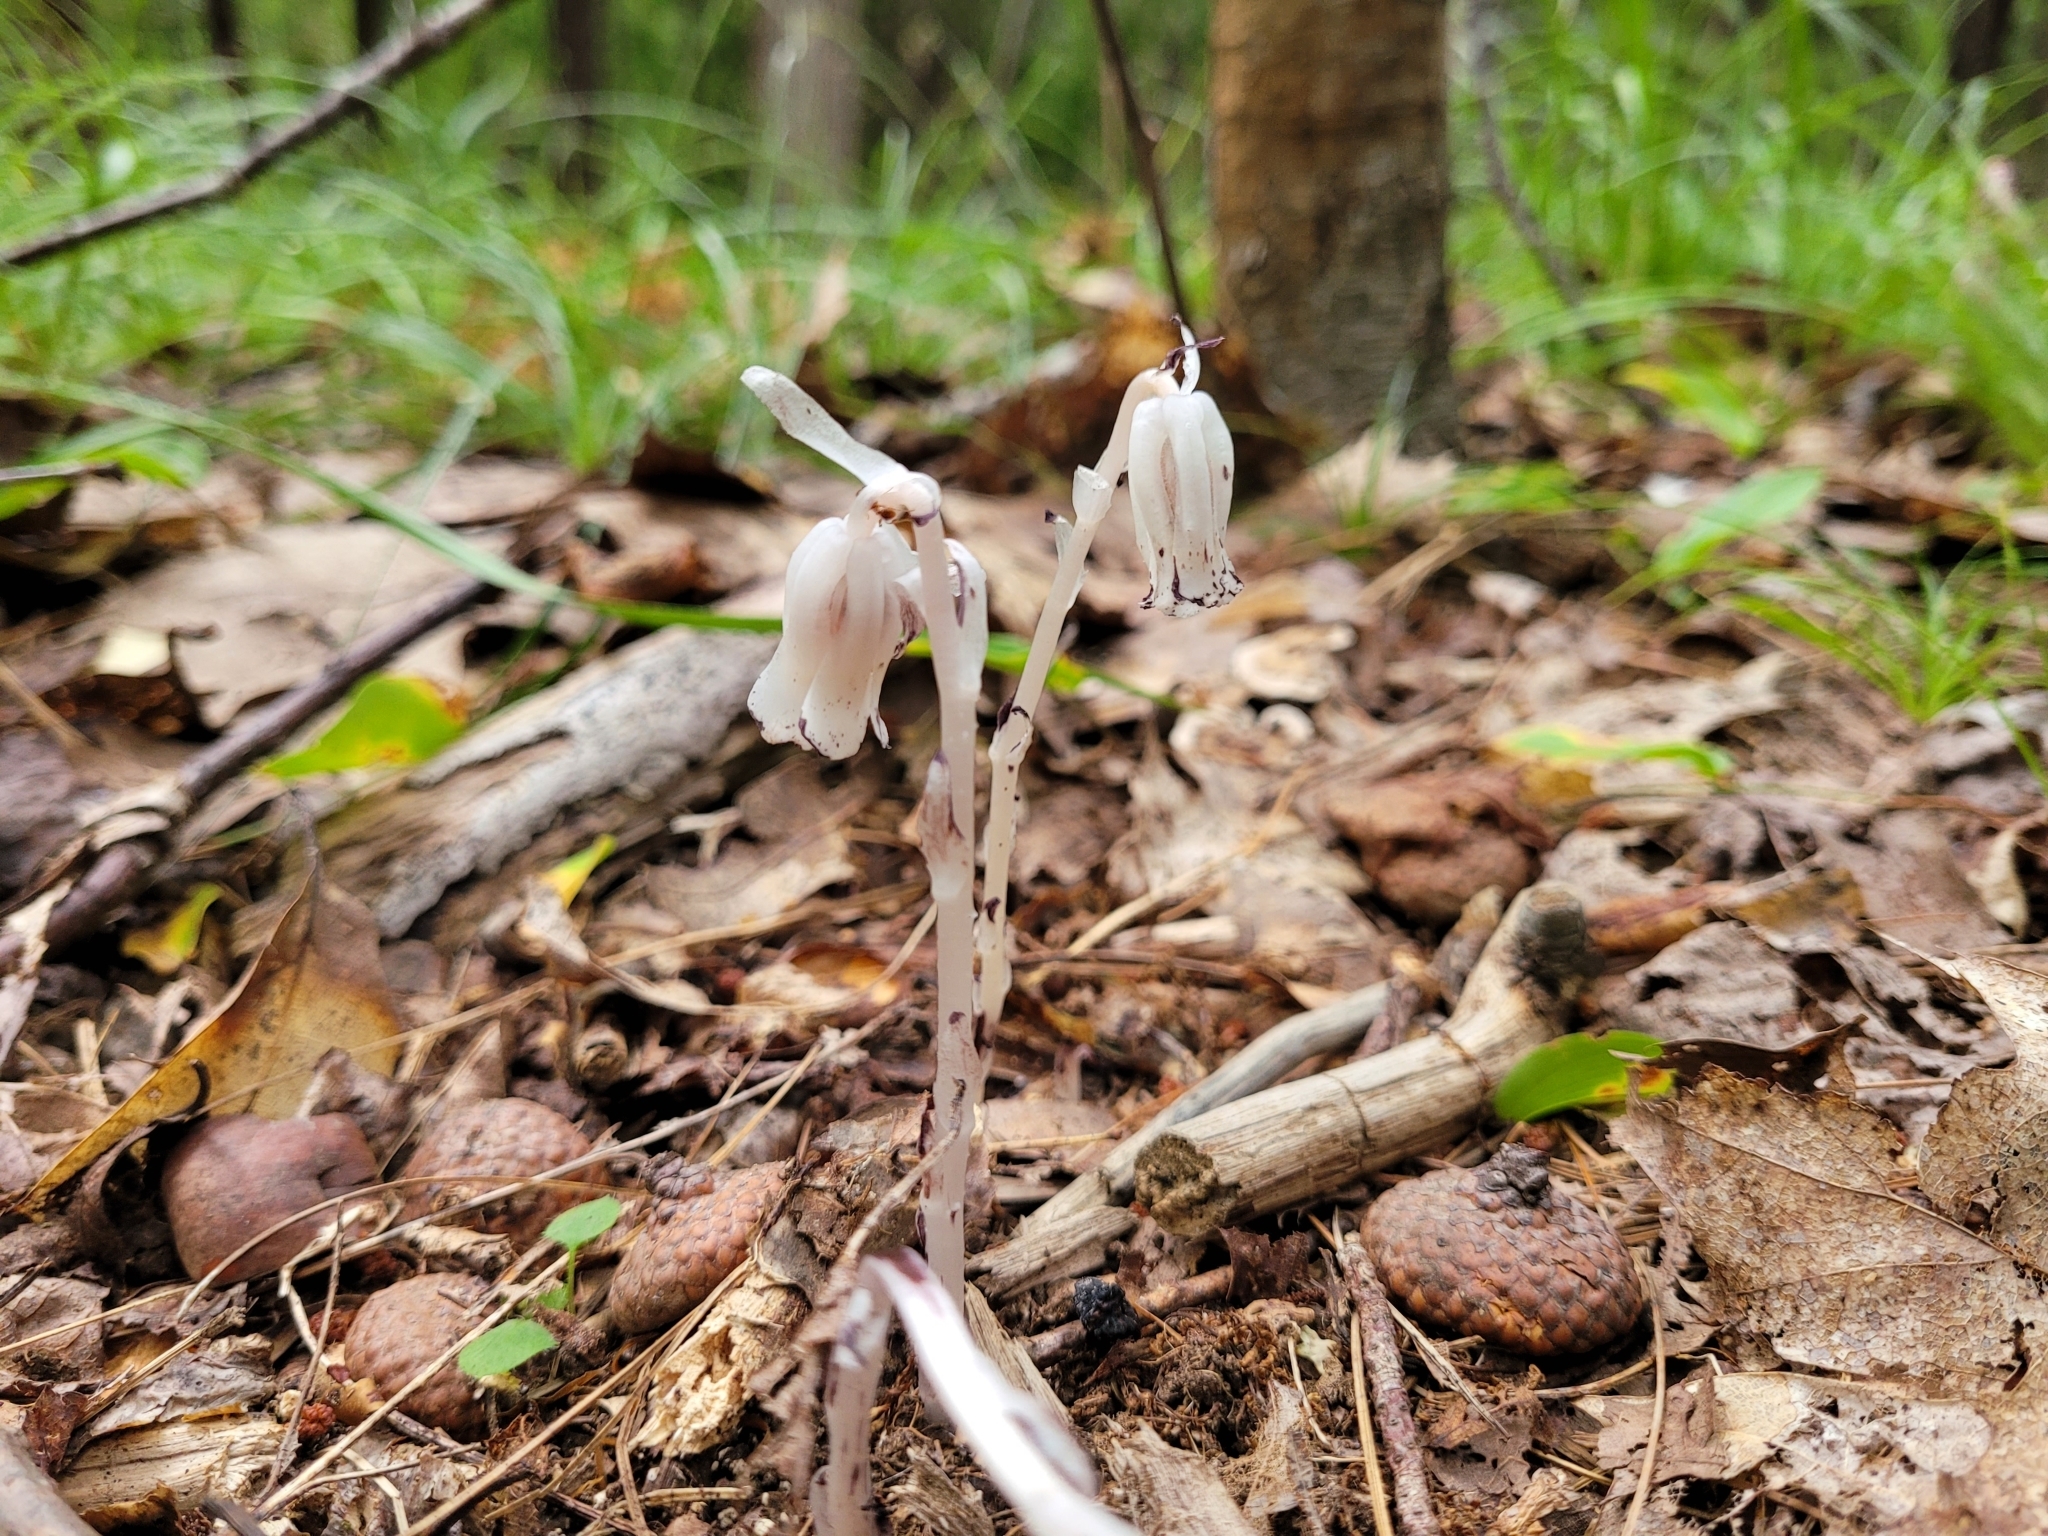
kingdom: Plantae
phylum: Tracheophyta
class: Magnoliopsida
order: Ericales
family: Ericaceae
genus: Monotropa
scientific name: Monotropa uniflora
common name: Convulsion root
